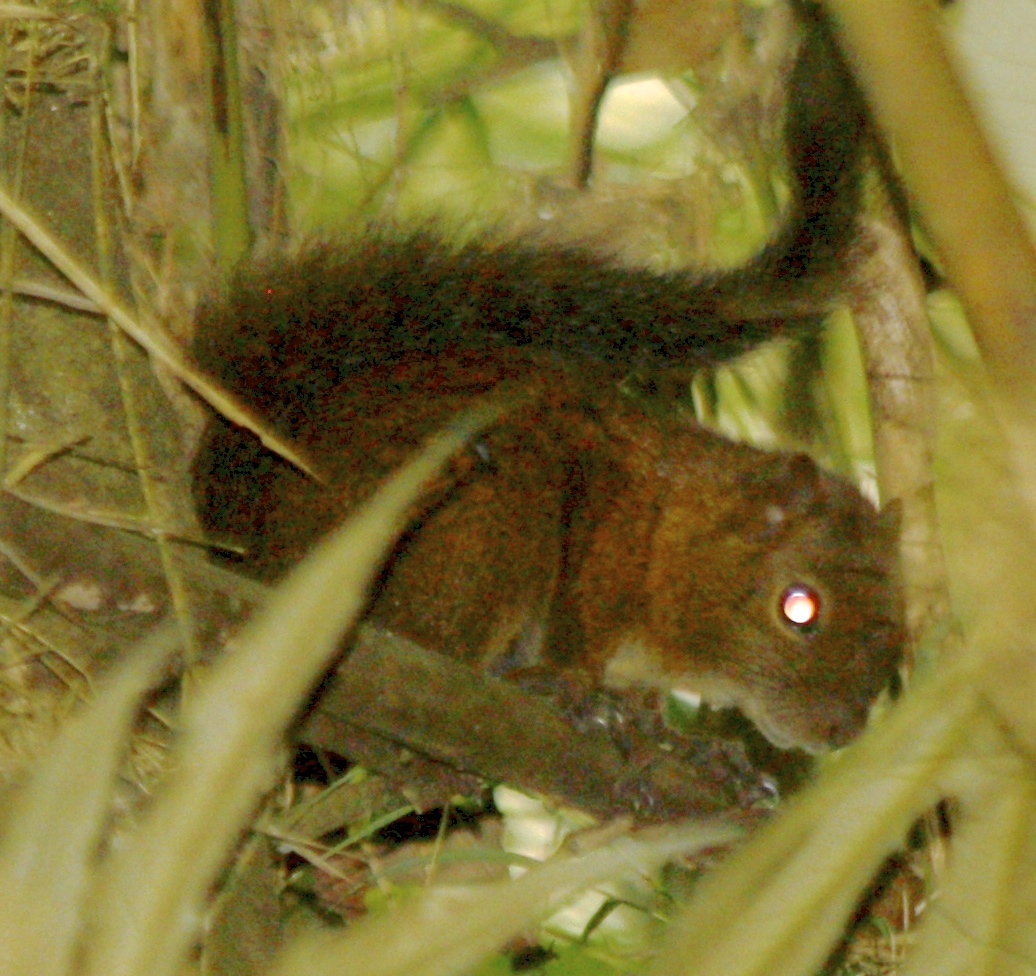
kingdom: Animalia
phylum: Chordata
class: Mammalia
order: Rodentia
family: Sciuridae
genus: Sciurus
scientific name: Sciurus pucheranii
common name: Andean squirrel
